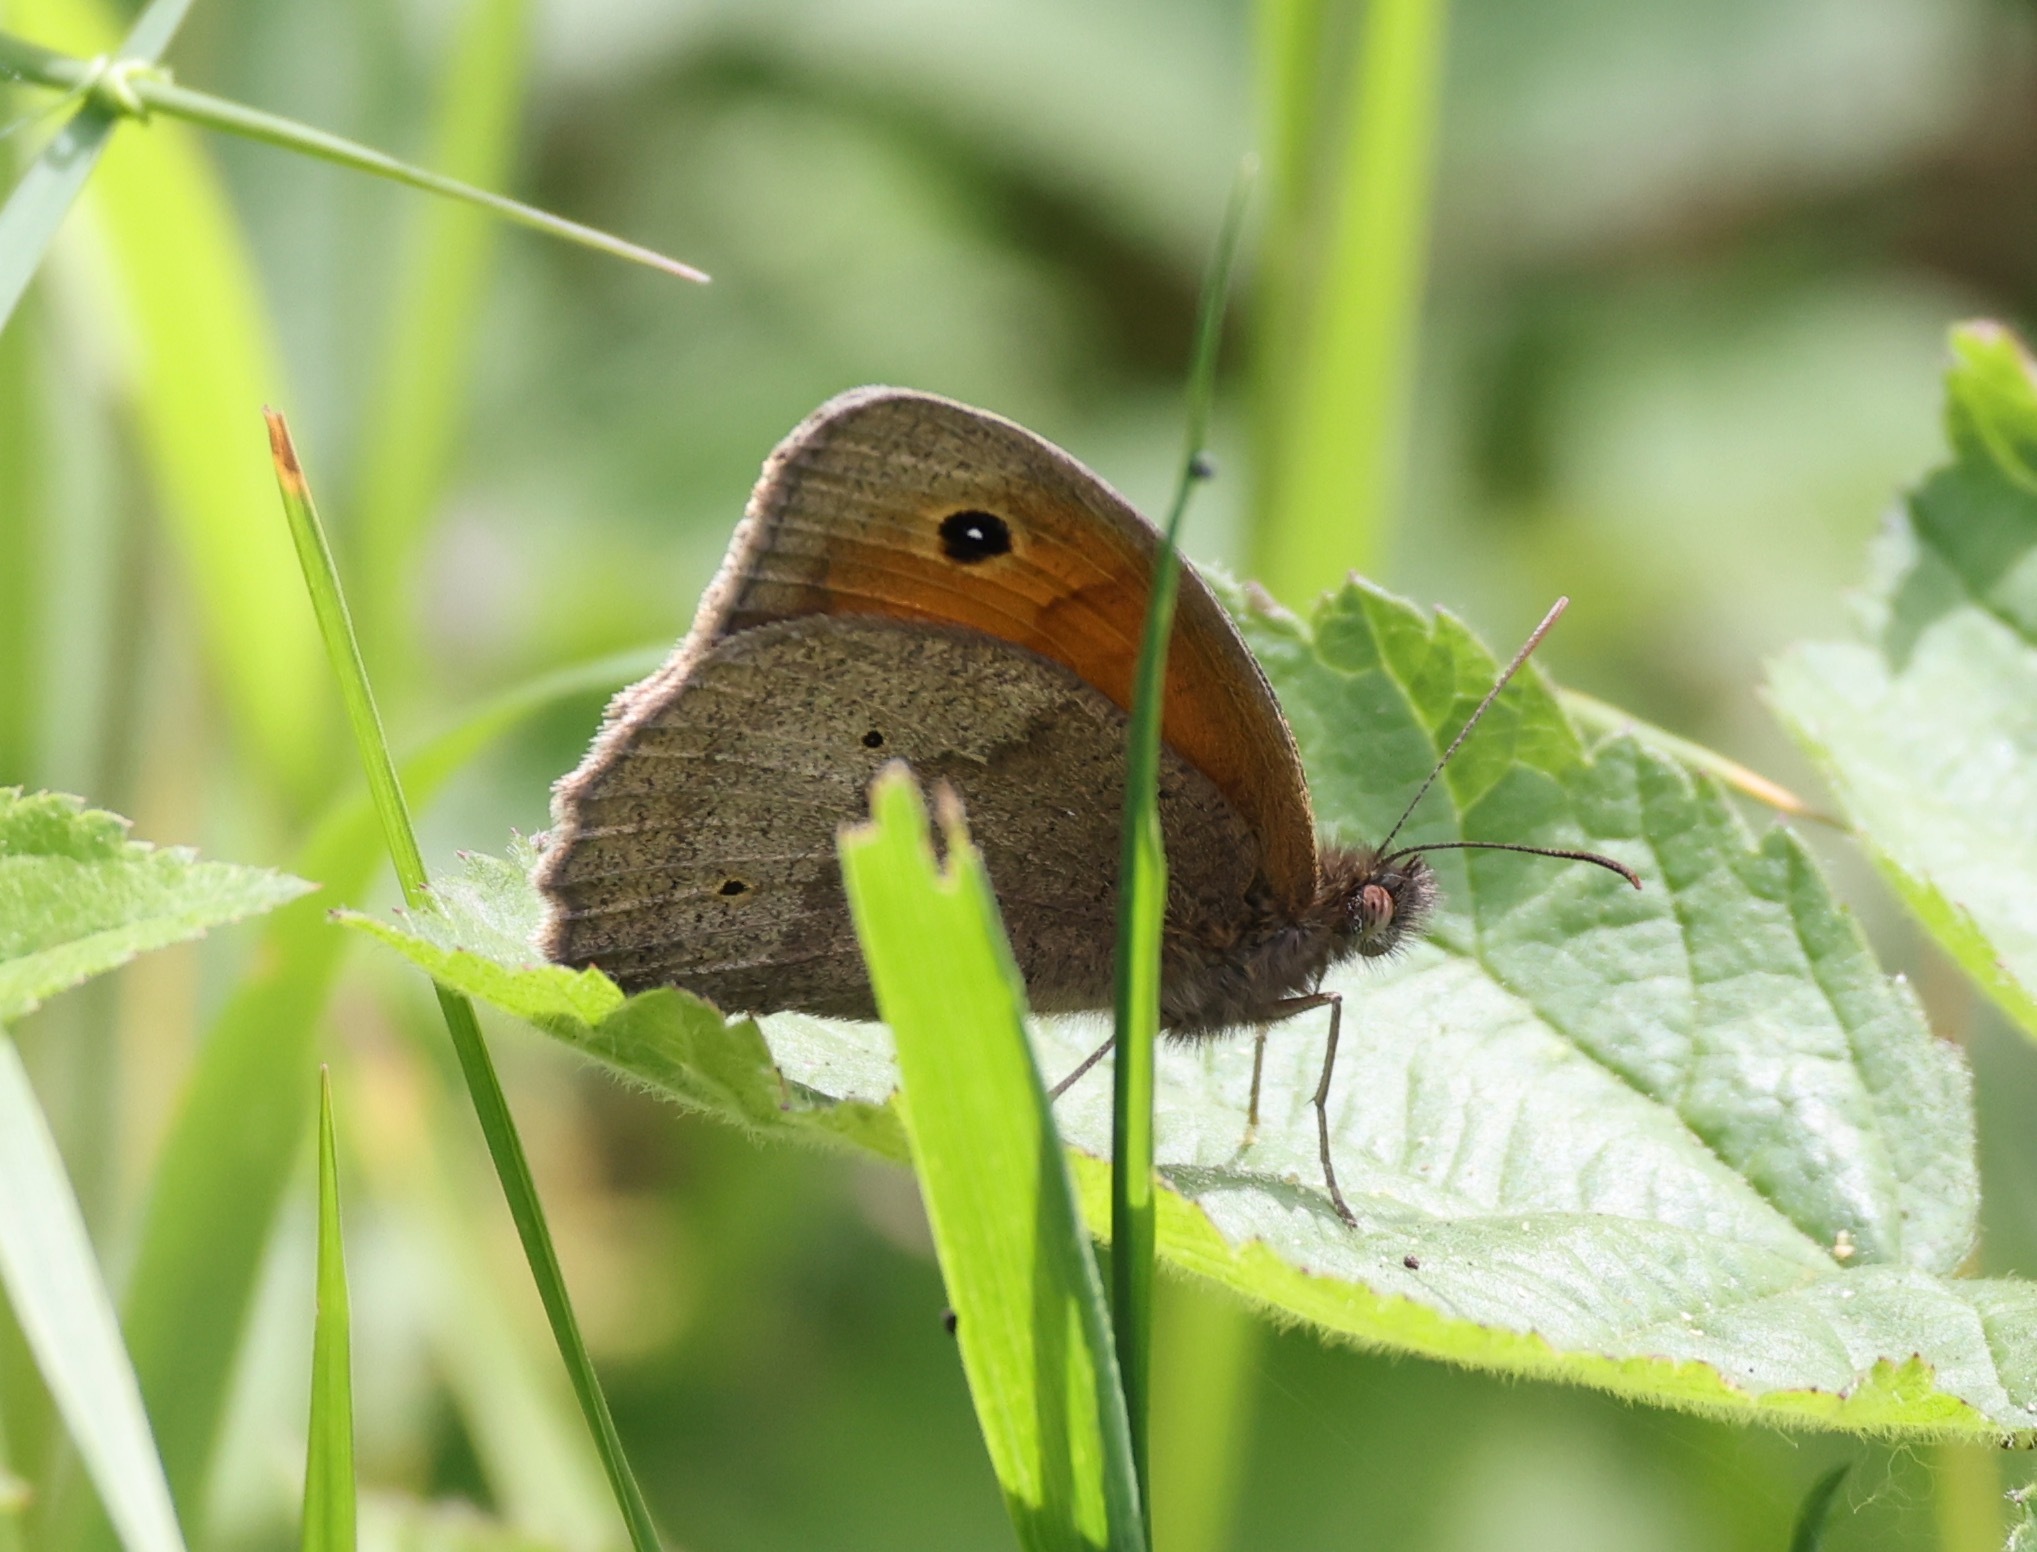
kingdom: Animalia
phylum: Arthropoda
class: Insecta
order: Lepidoptera
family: Nymphalidae
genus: Maniola
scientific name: Maniola jurtina
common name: Meadow brown
